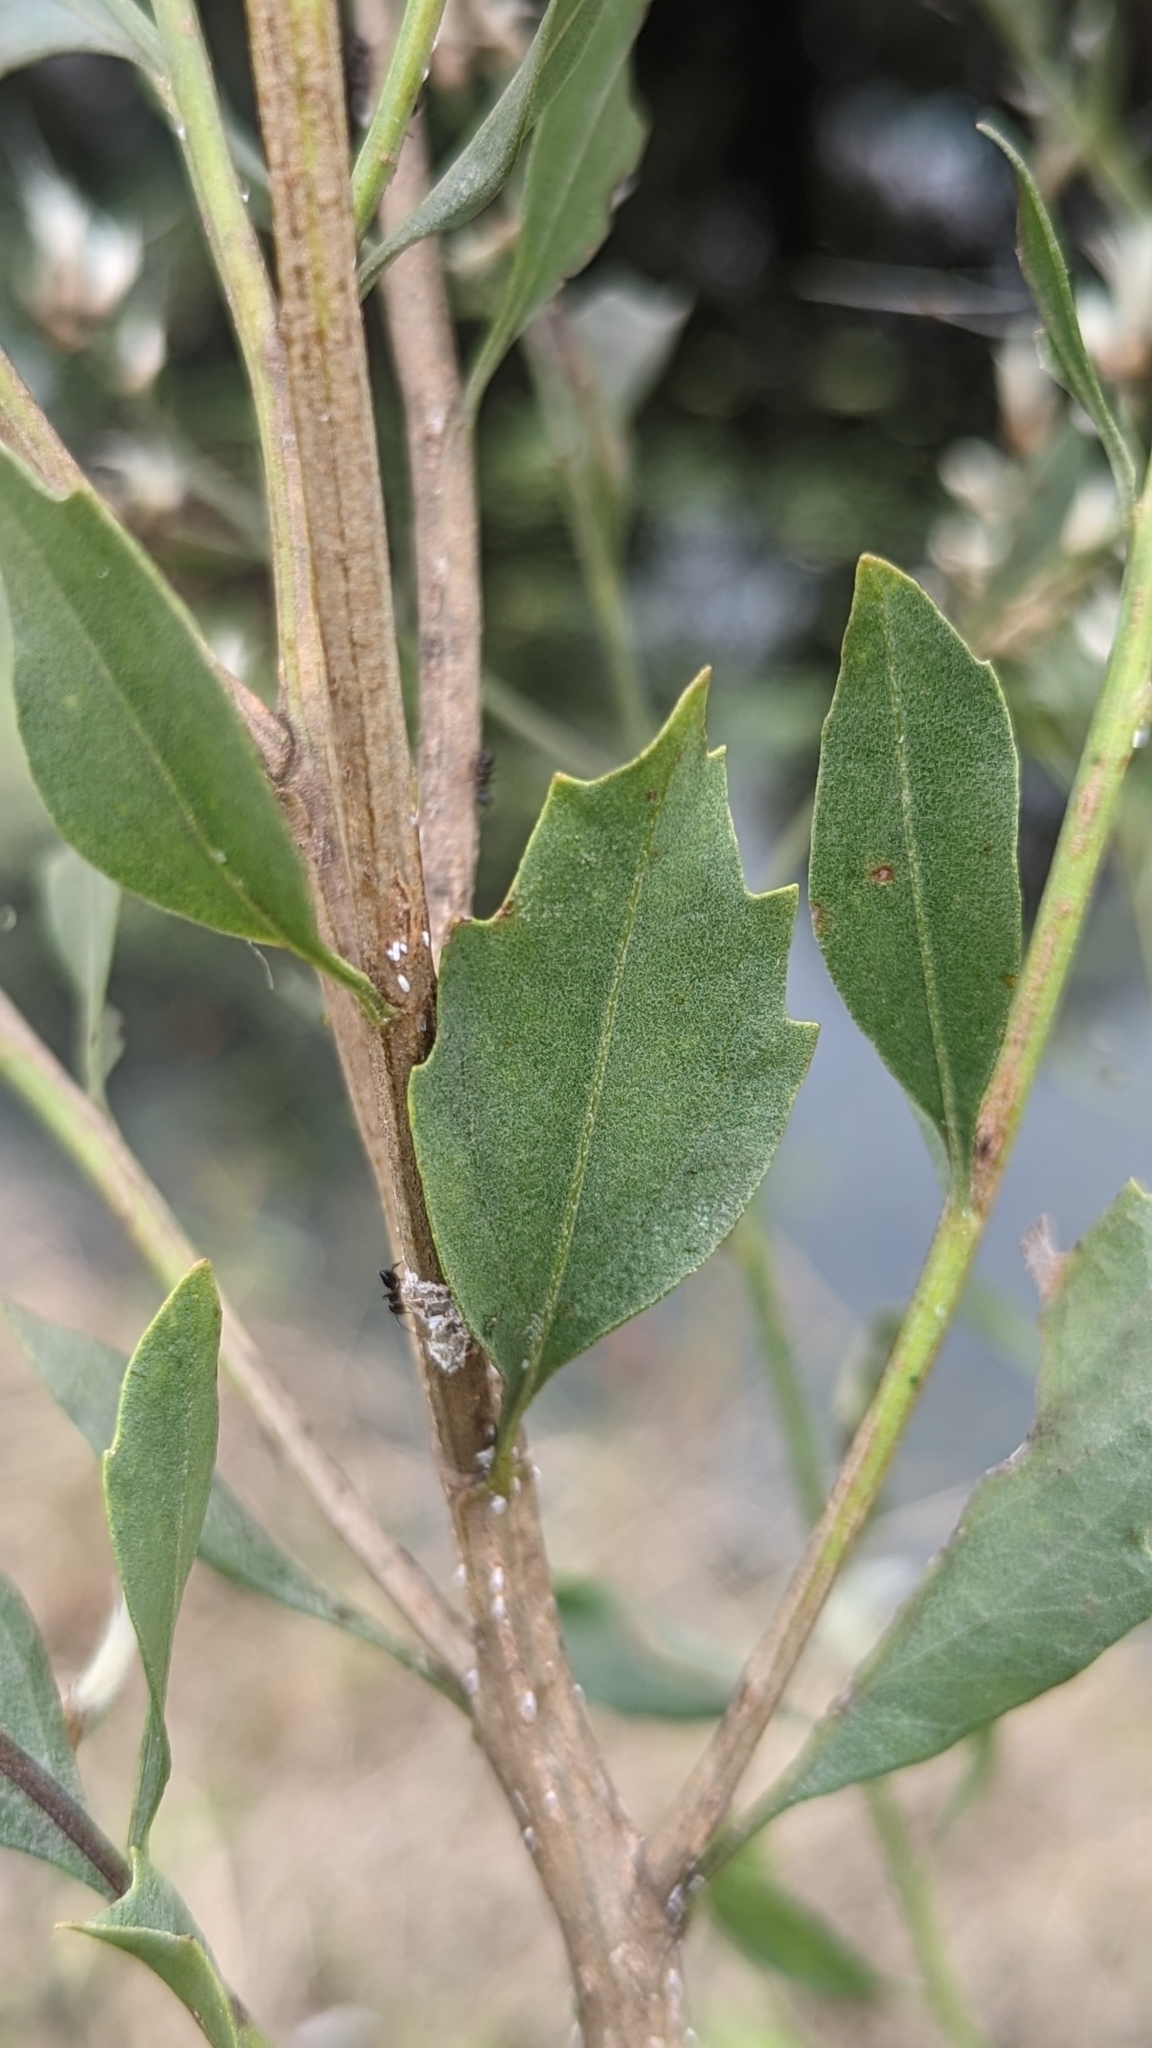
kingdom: Plantae
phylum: Tracheophyta
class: Magnoliopsida
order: Asterales
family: Asteraceae
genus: Baccharis
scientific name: Baccharis halimifolia
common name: Eastern baccharis
